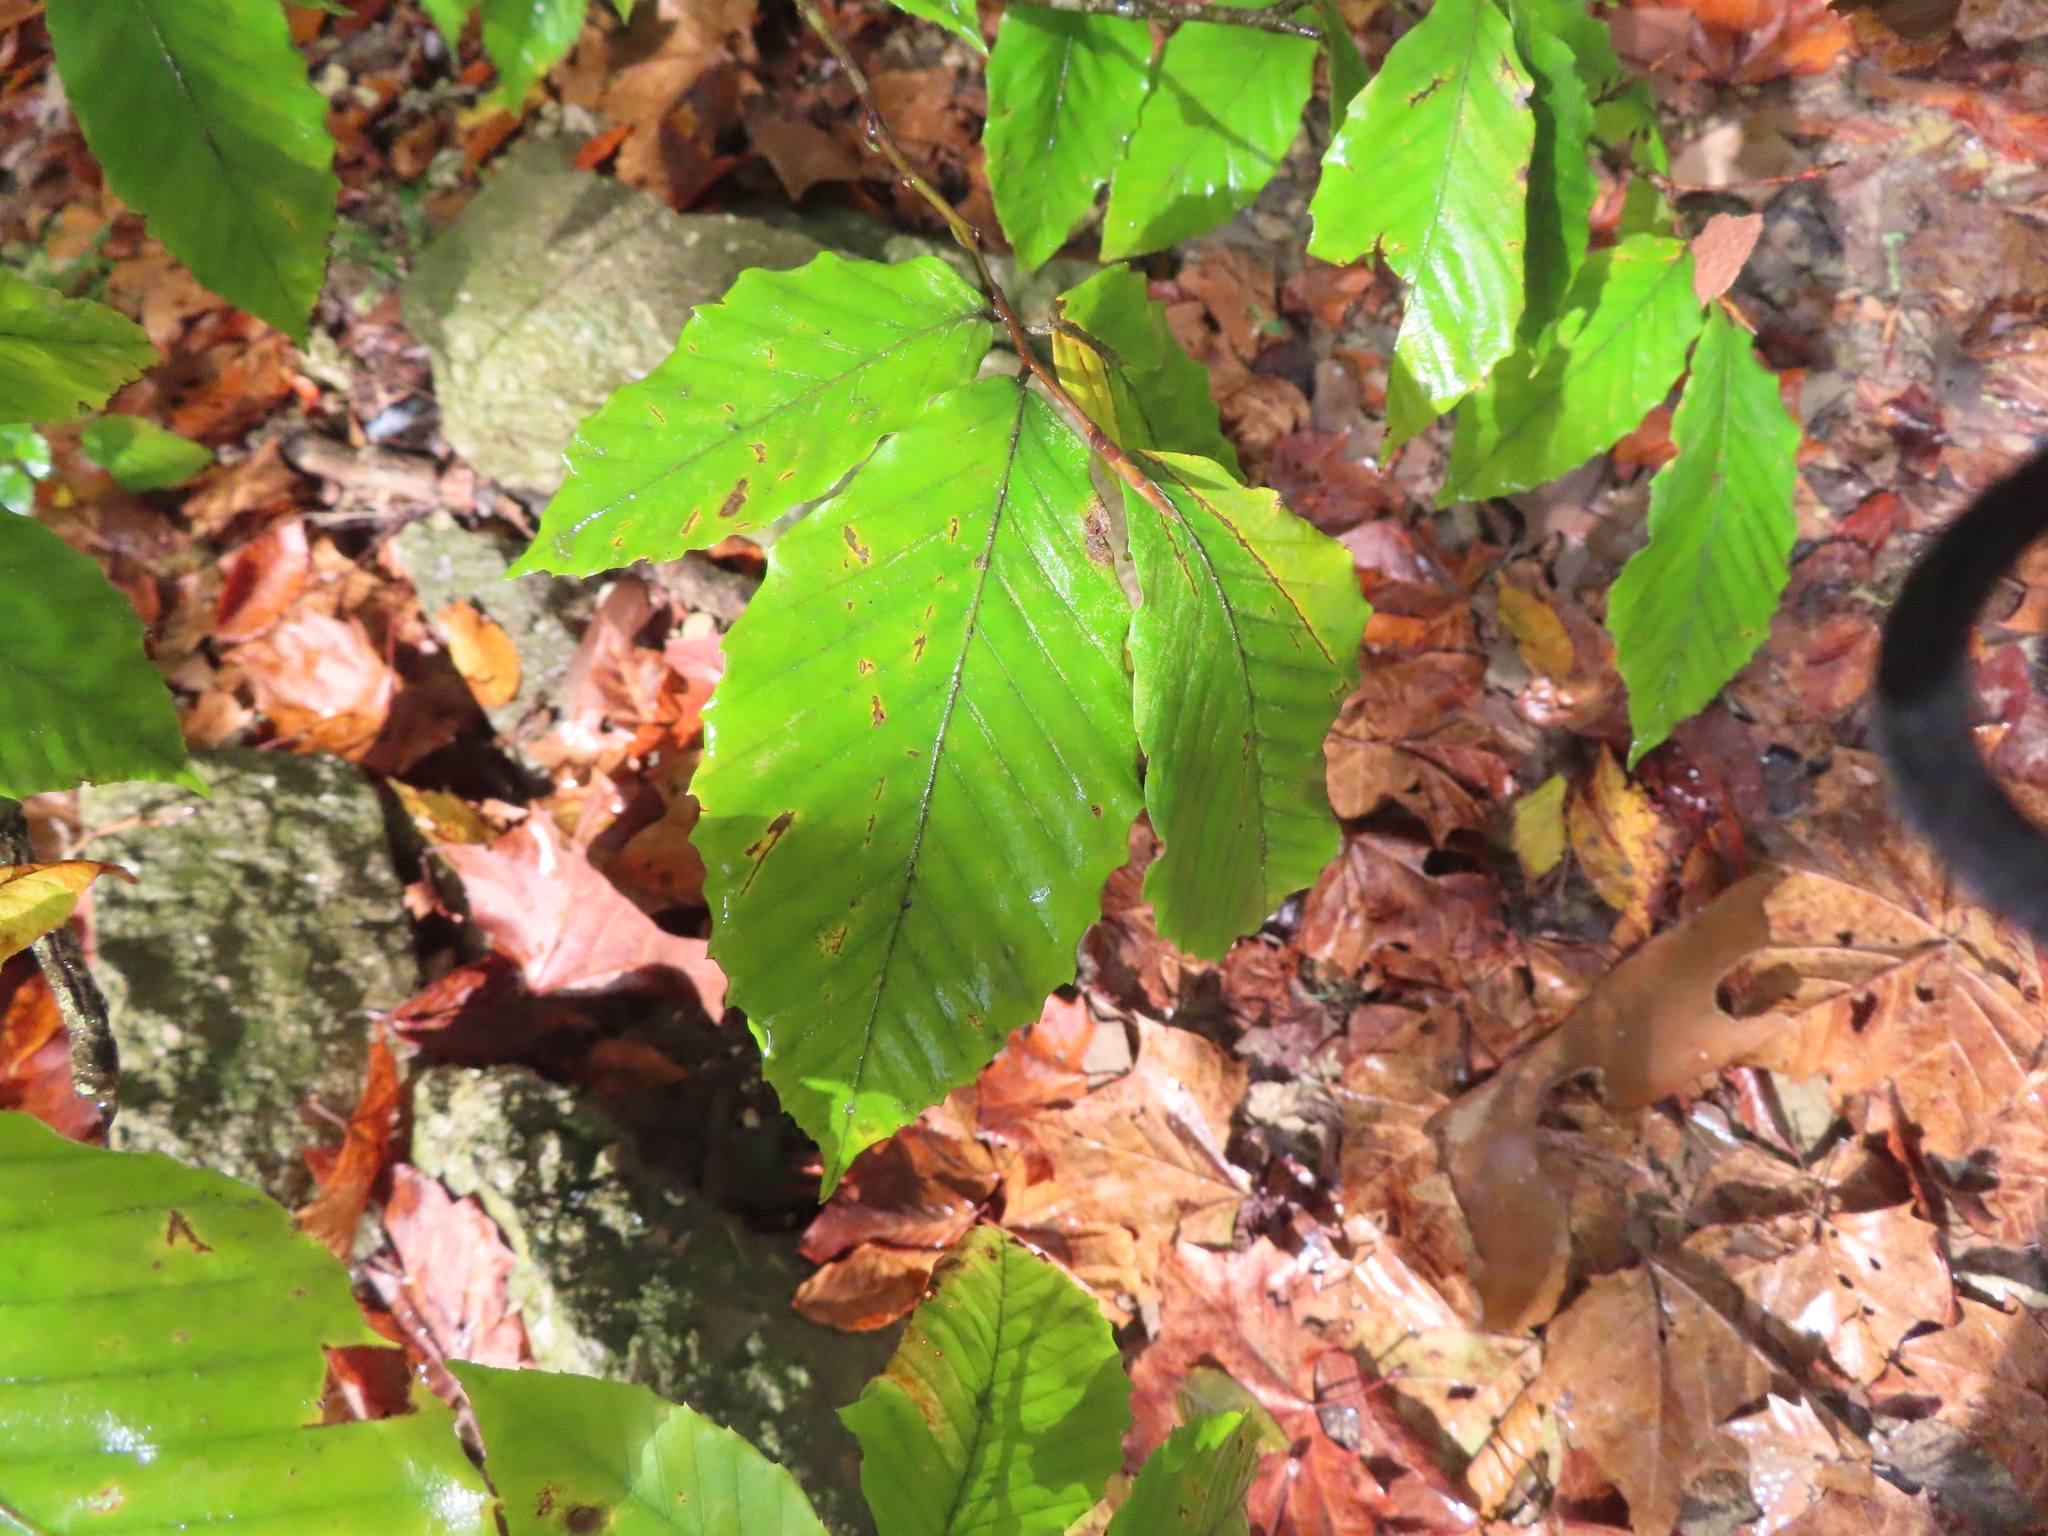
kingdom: Plantae
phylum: Tracheophyta
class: Magnoliopsida
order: Fagales
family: Fagaceae
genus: Fagus
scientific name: Fagus grandifolia
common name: American beech
